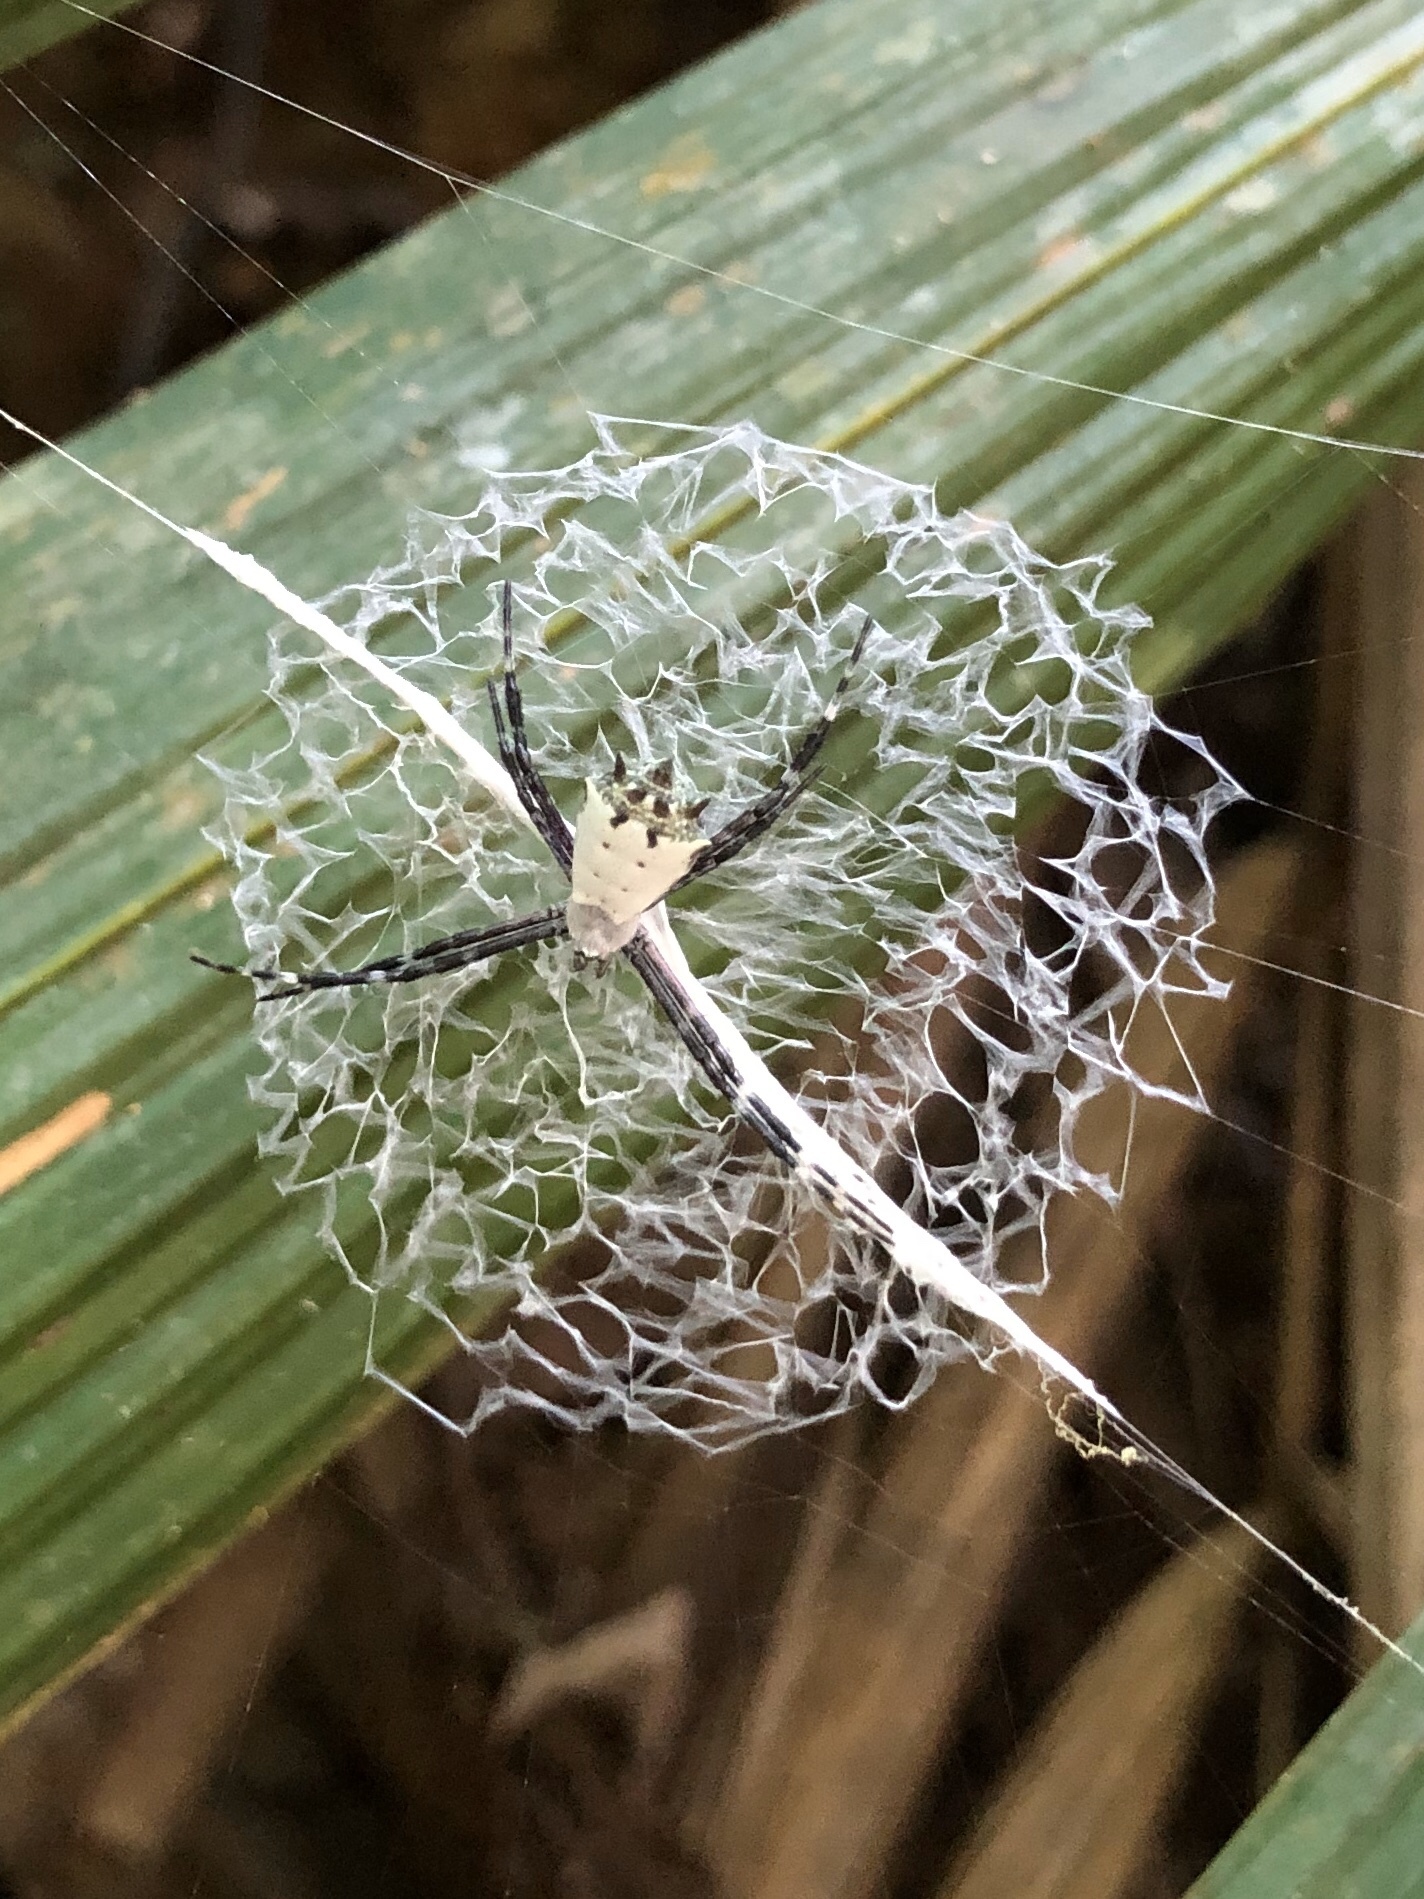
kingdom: Animalia
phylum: Arthropoda
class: Arachnida
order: Araneae
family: Araneidae
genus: Argiope
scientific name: Argiope submaronica
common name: Orb weavers
